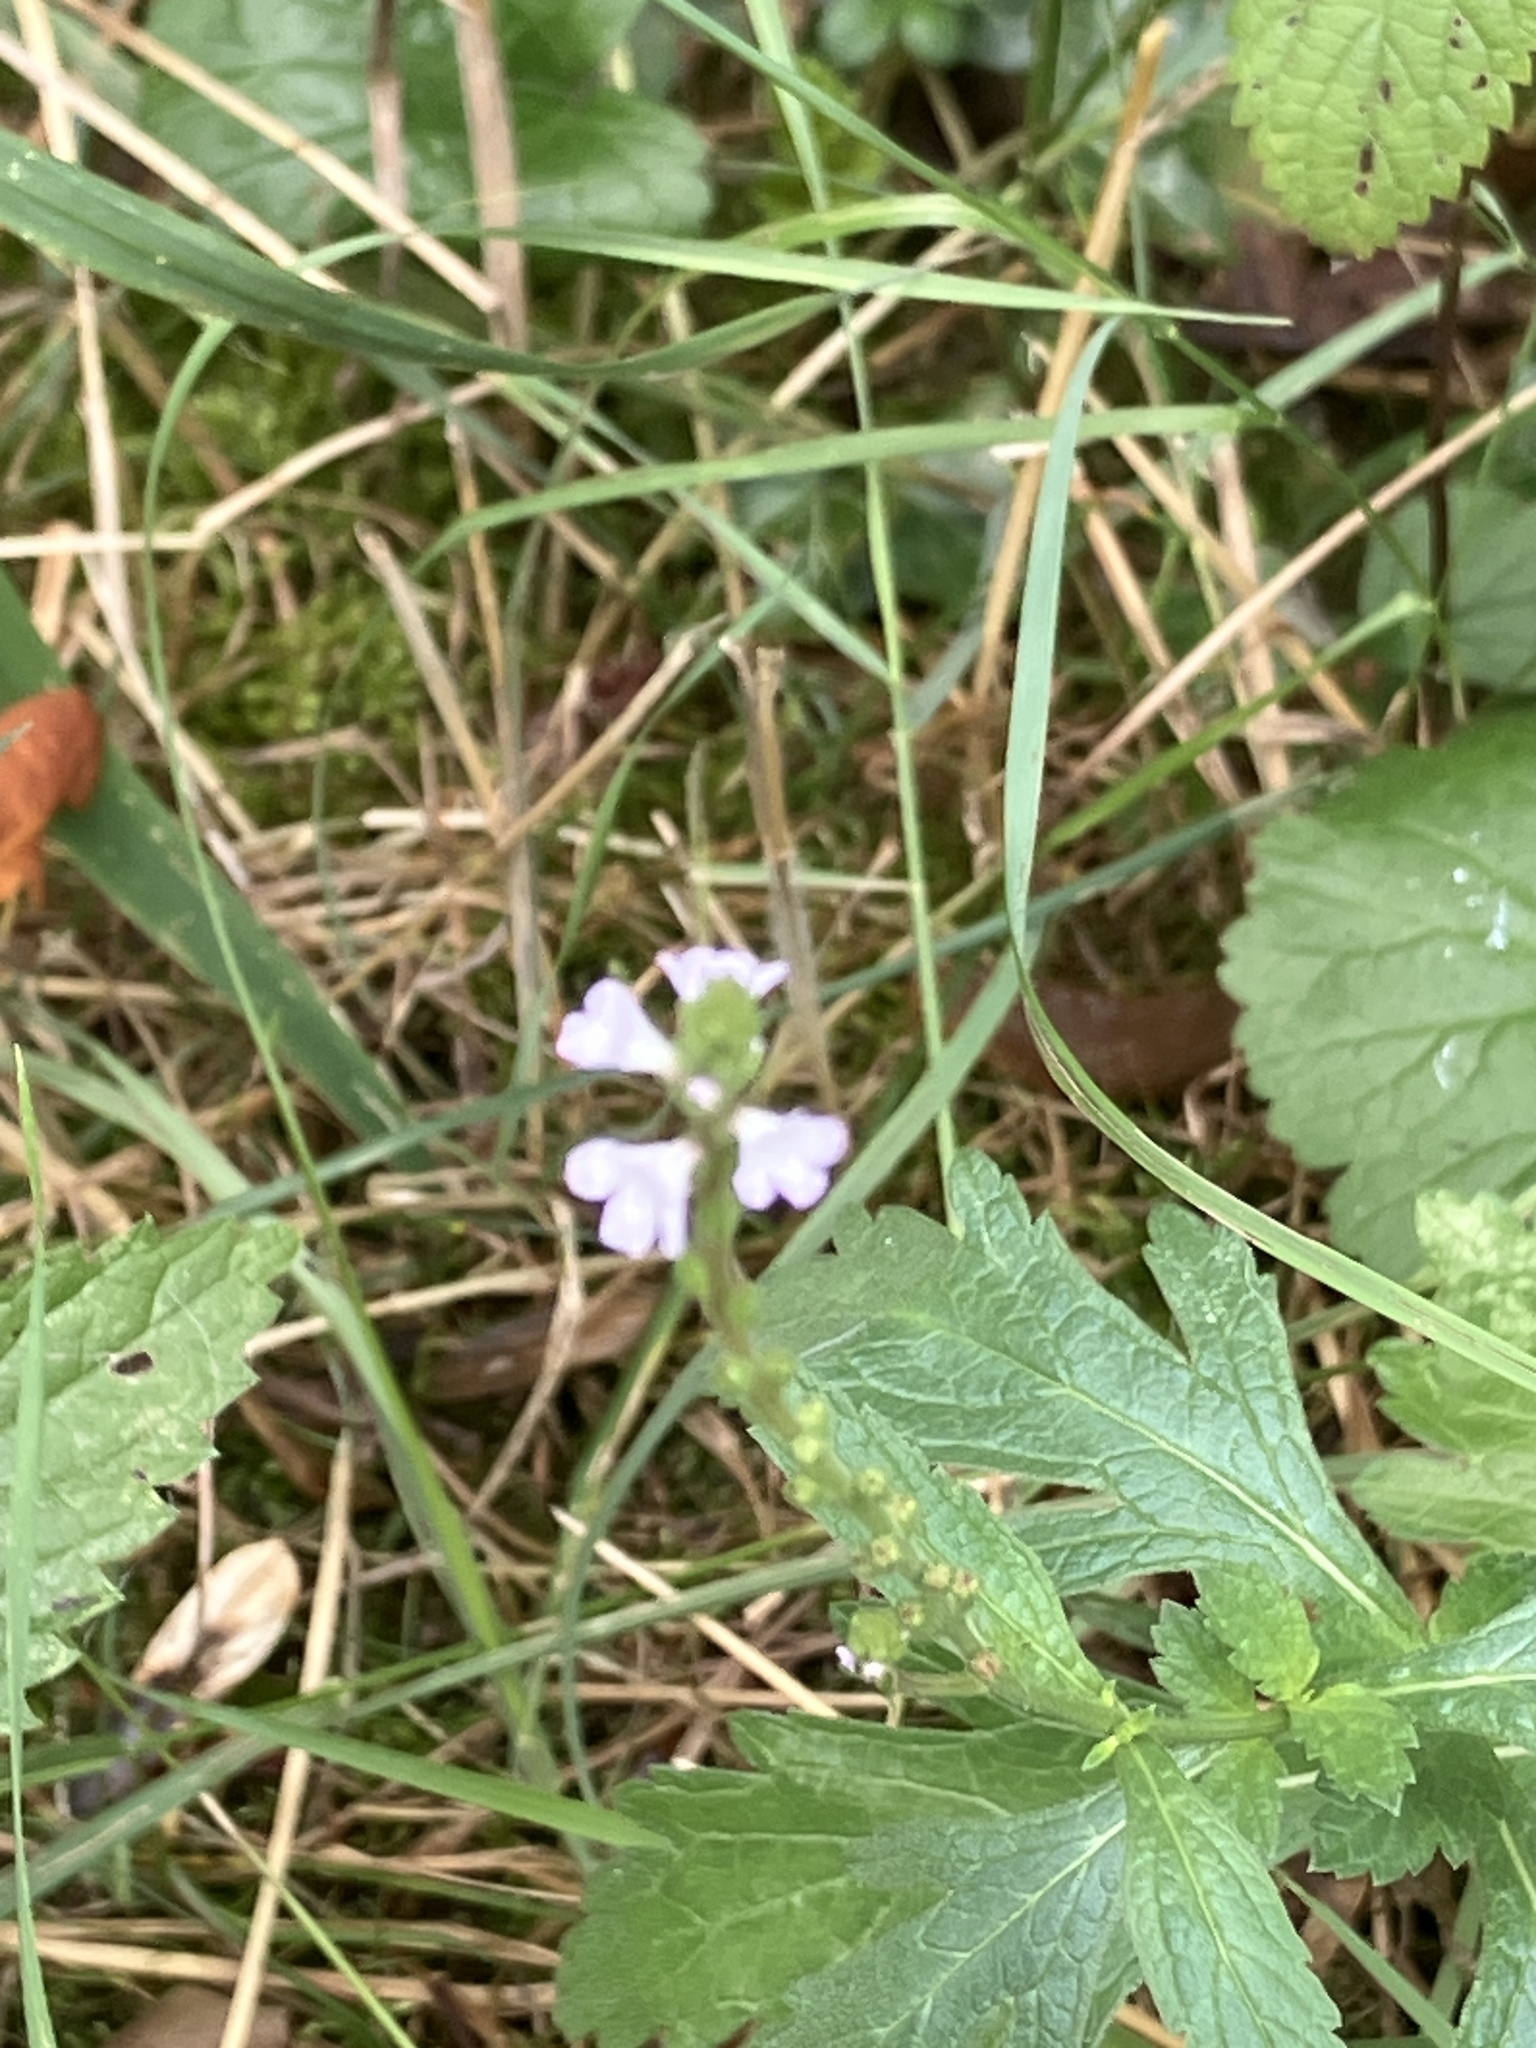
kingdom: Plantae
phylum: Tracheophyta
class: Magnoliopsida
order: Lamiales
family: Verbenaceae
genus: Verbena
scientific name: Verbena officinalis
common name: Vervain
